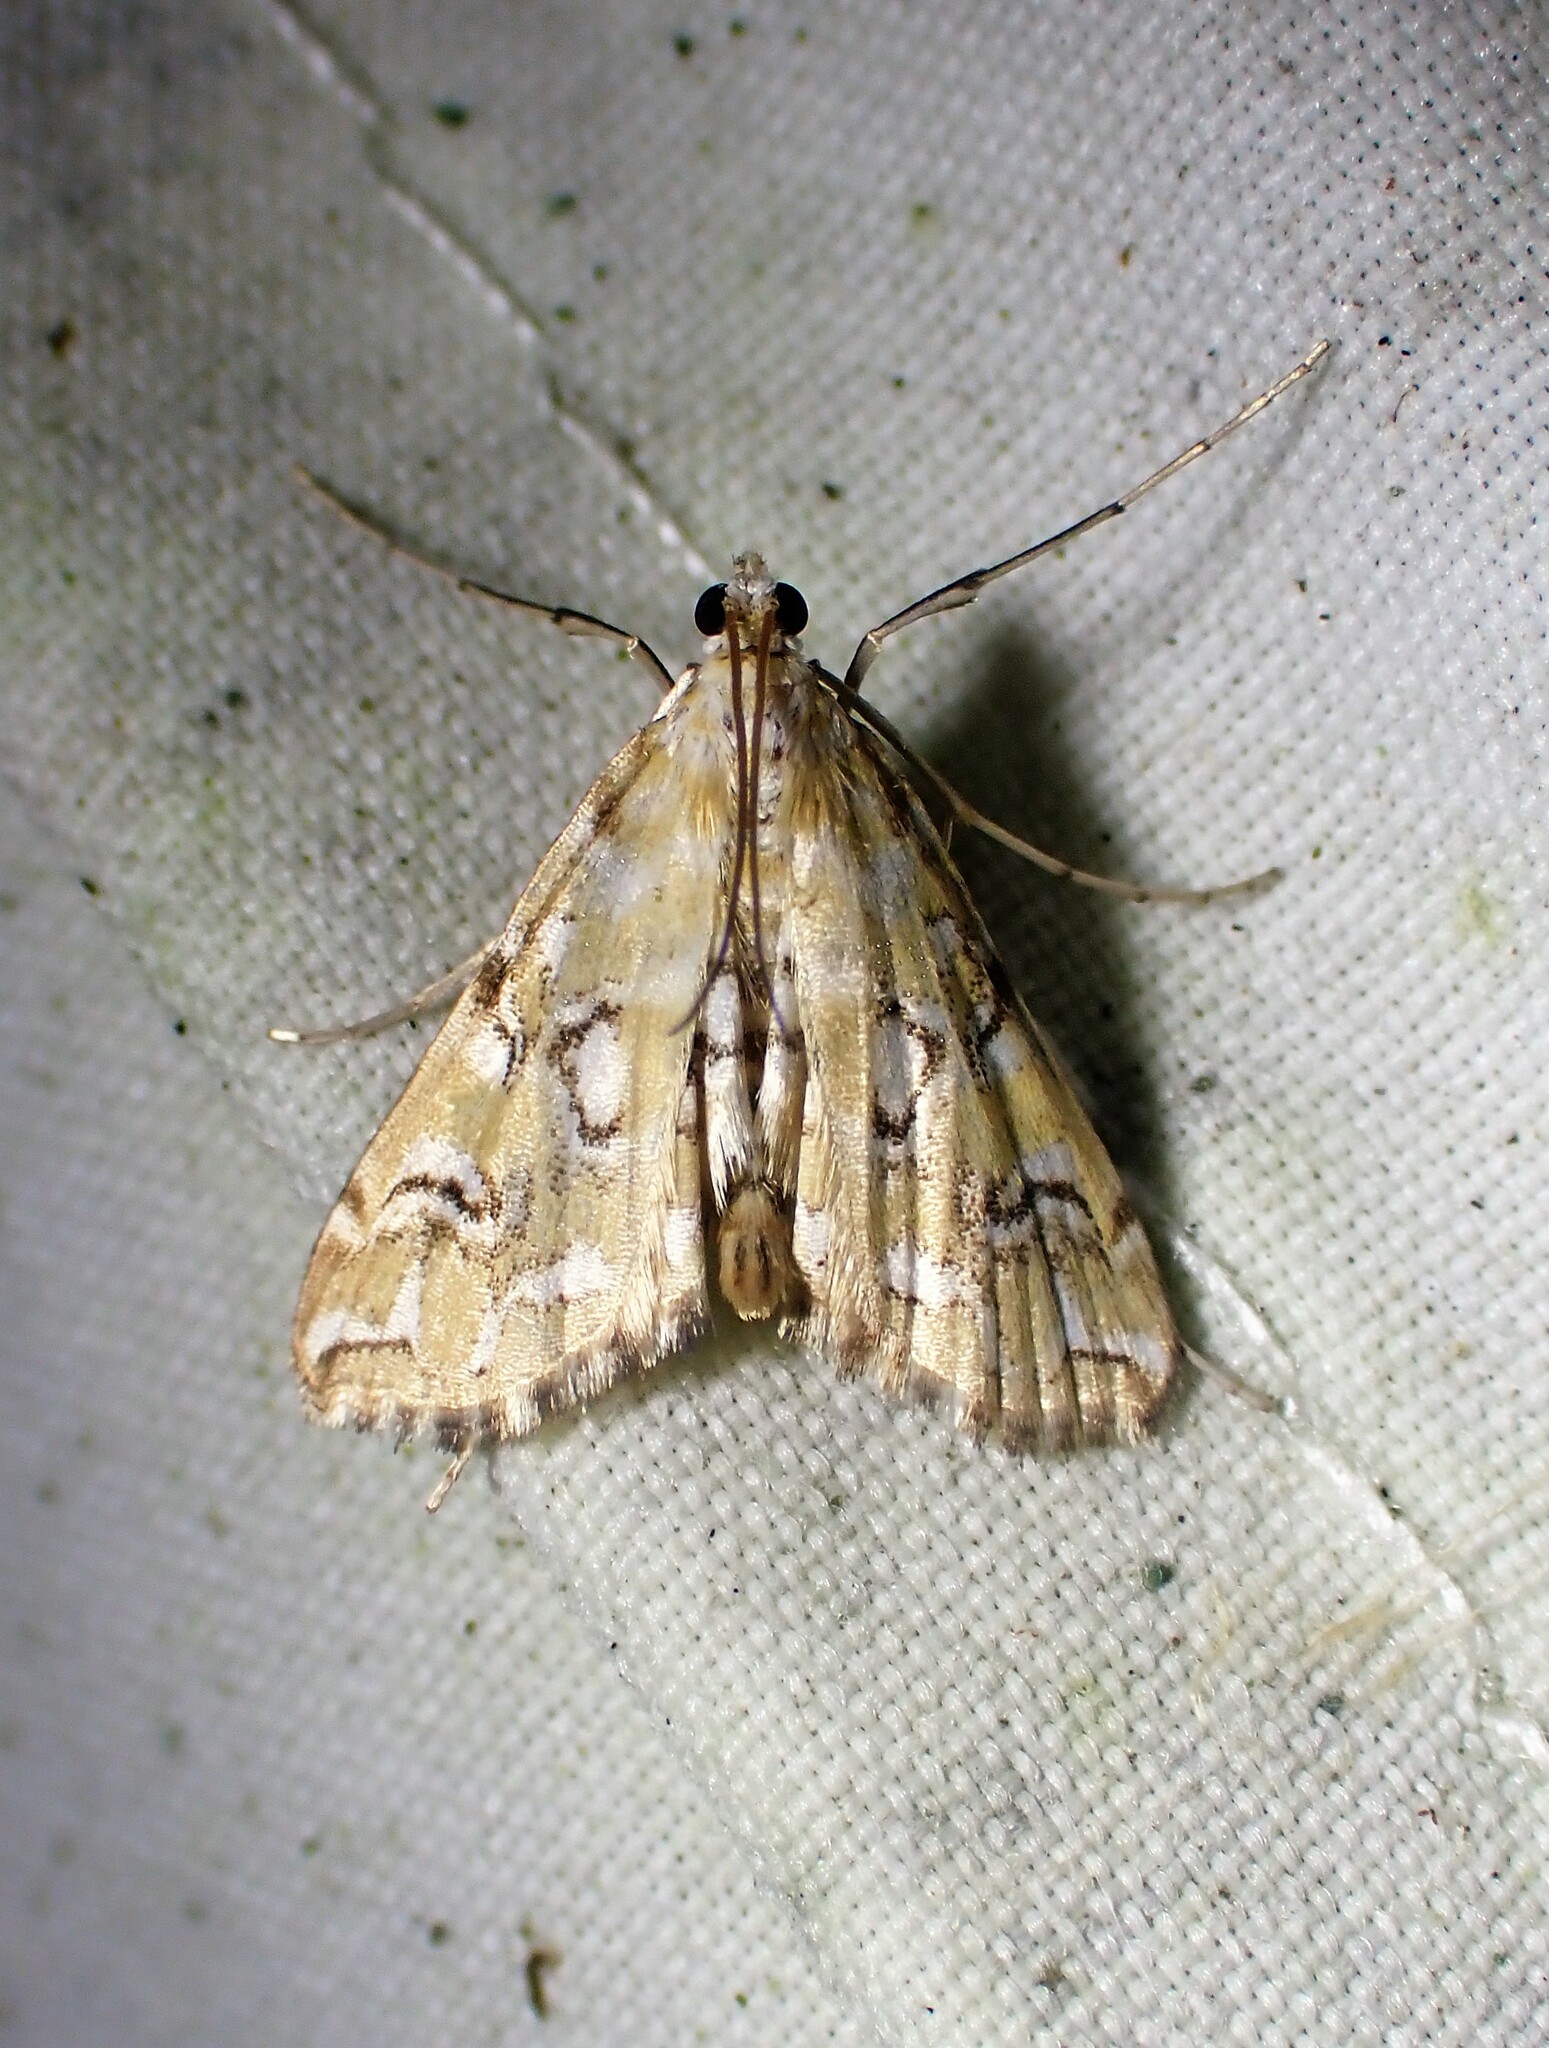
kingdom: Animalia
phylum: Arthropoda
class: Insecta
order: Lepidoptera
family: Crambidae
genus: Elophila
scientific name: Elophila icciusalis
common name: Pondside pyralid moth
